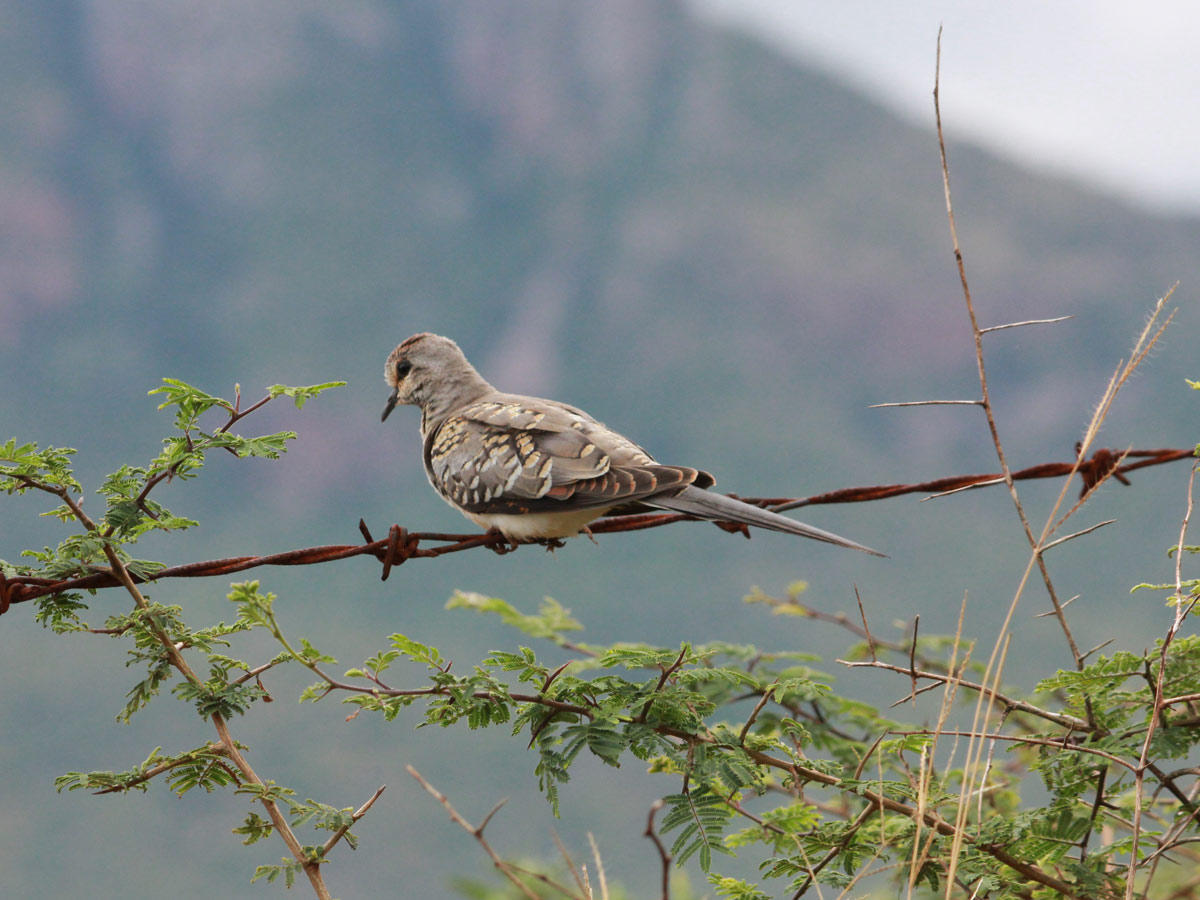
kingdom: Animalia
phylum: Chordata
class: Aves
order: Columbiformes
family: Columbidae
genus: Oena
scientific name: Oena capensis
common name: Namaqua dove
